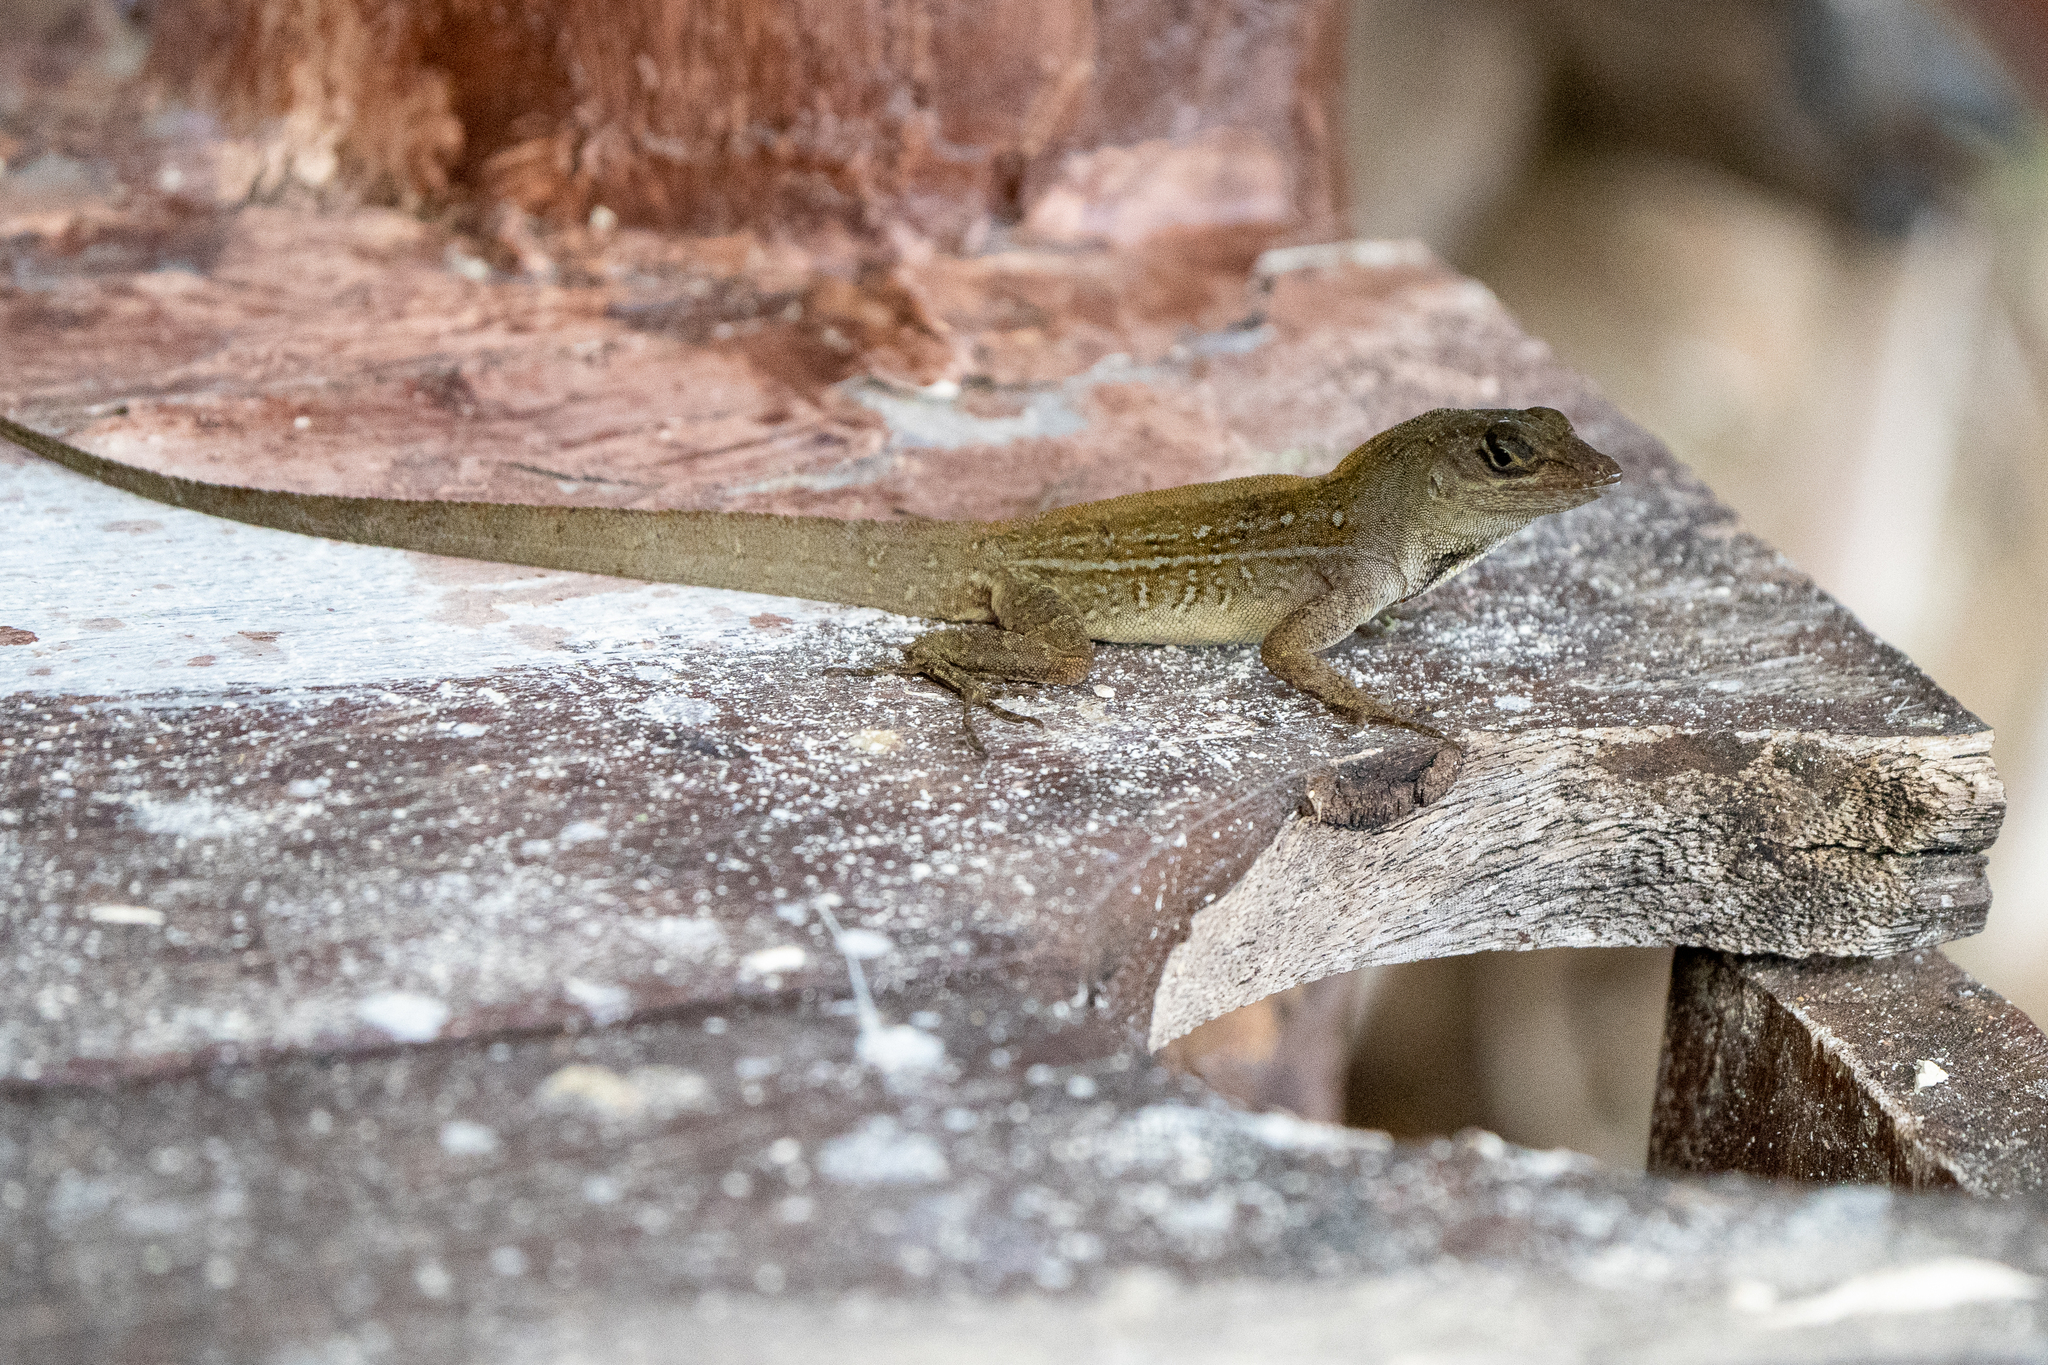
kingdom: Animalia
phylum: Chordata
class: Squamata
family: Dactyloidae
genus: Anolis
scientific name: Anolis sagrei
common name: Brown anole
